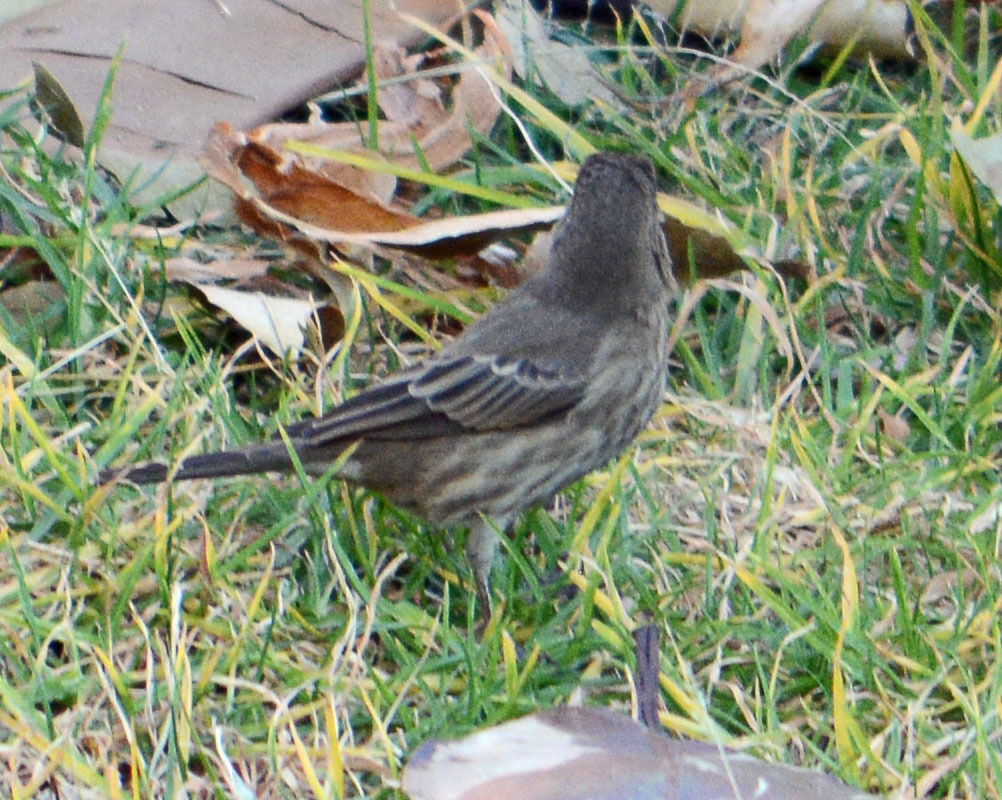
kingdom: Animalia
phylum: Chordata
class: Aves
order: Passeriformes
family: Fringillidae
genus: Haemorhous
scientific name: Haemorhous mexicanus
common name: House finch
